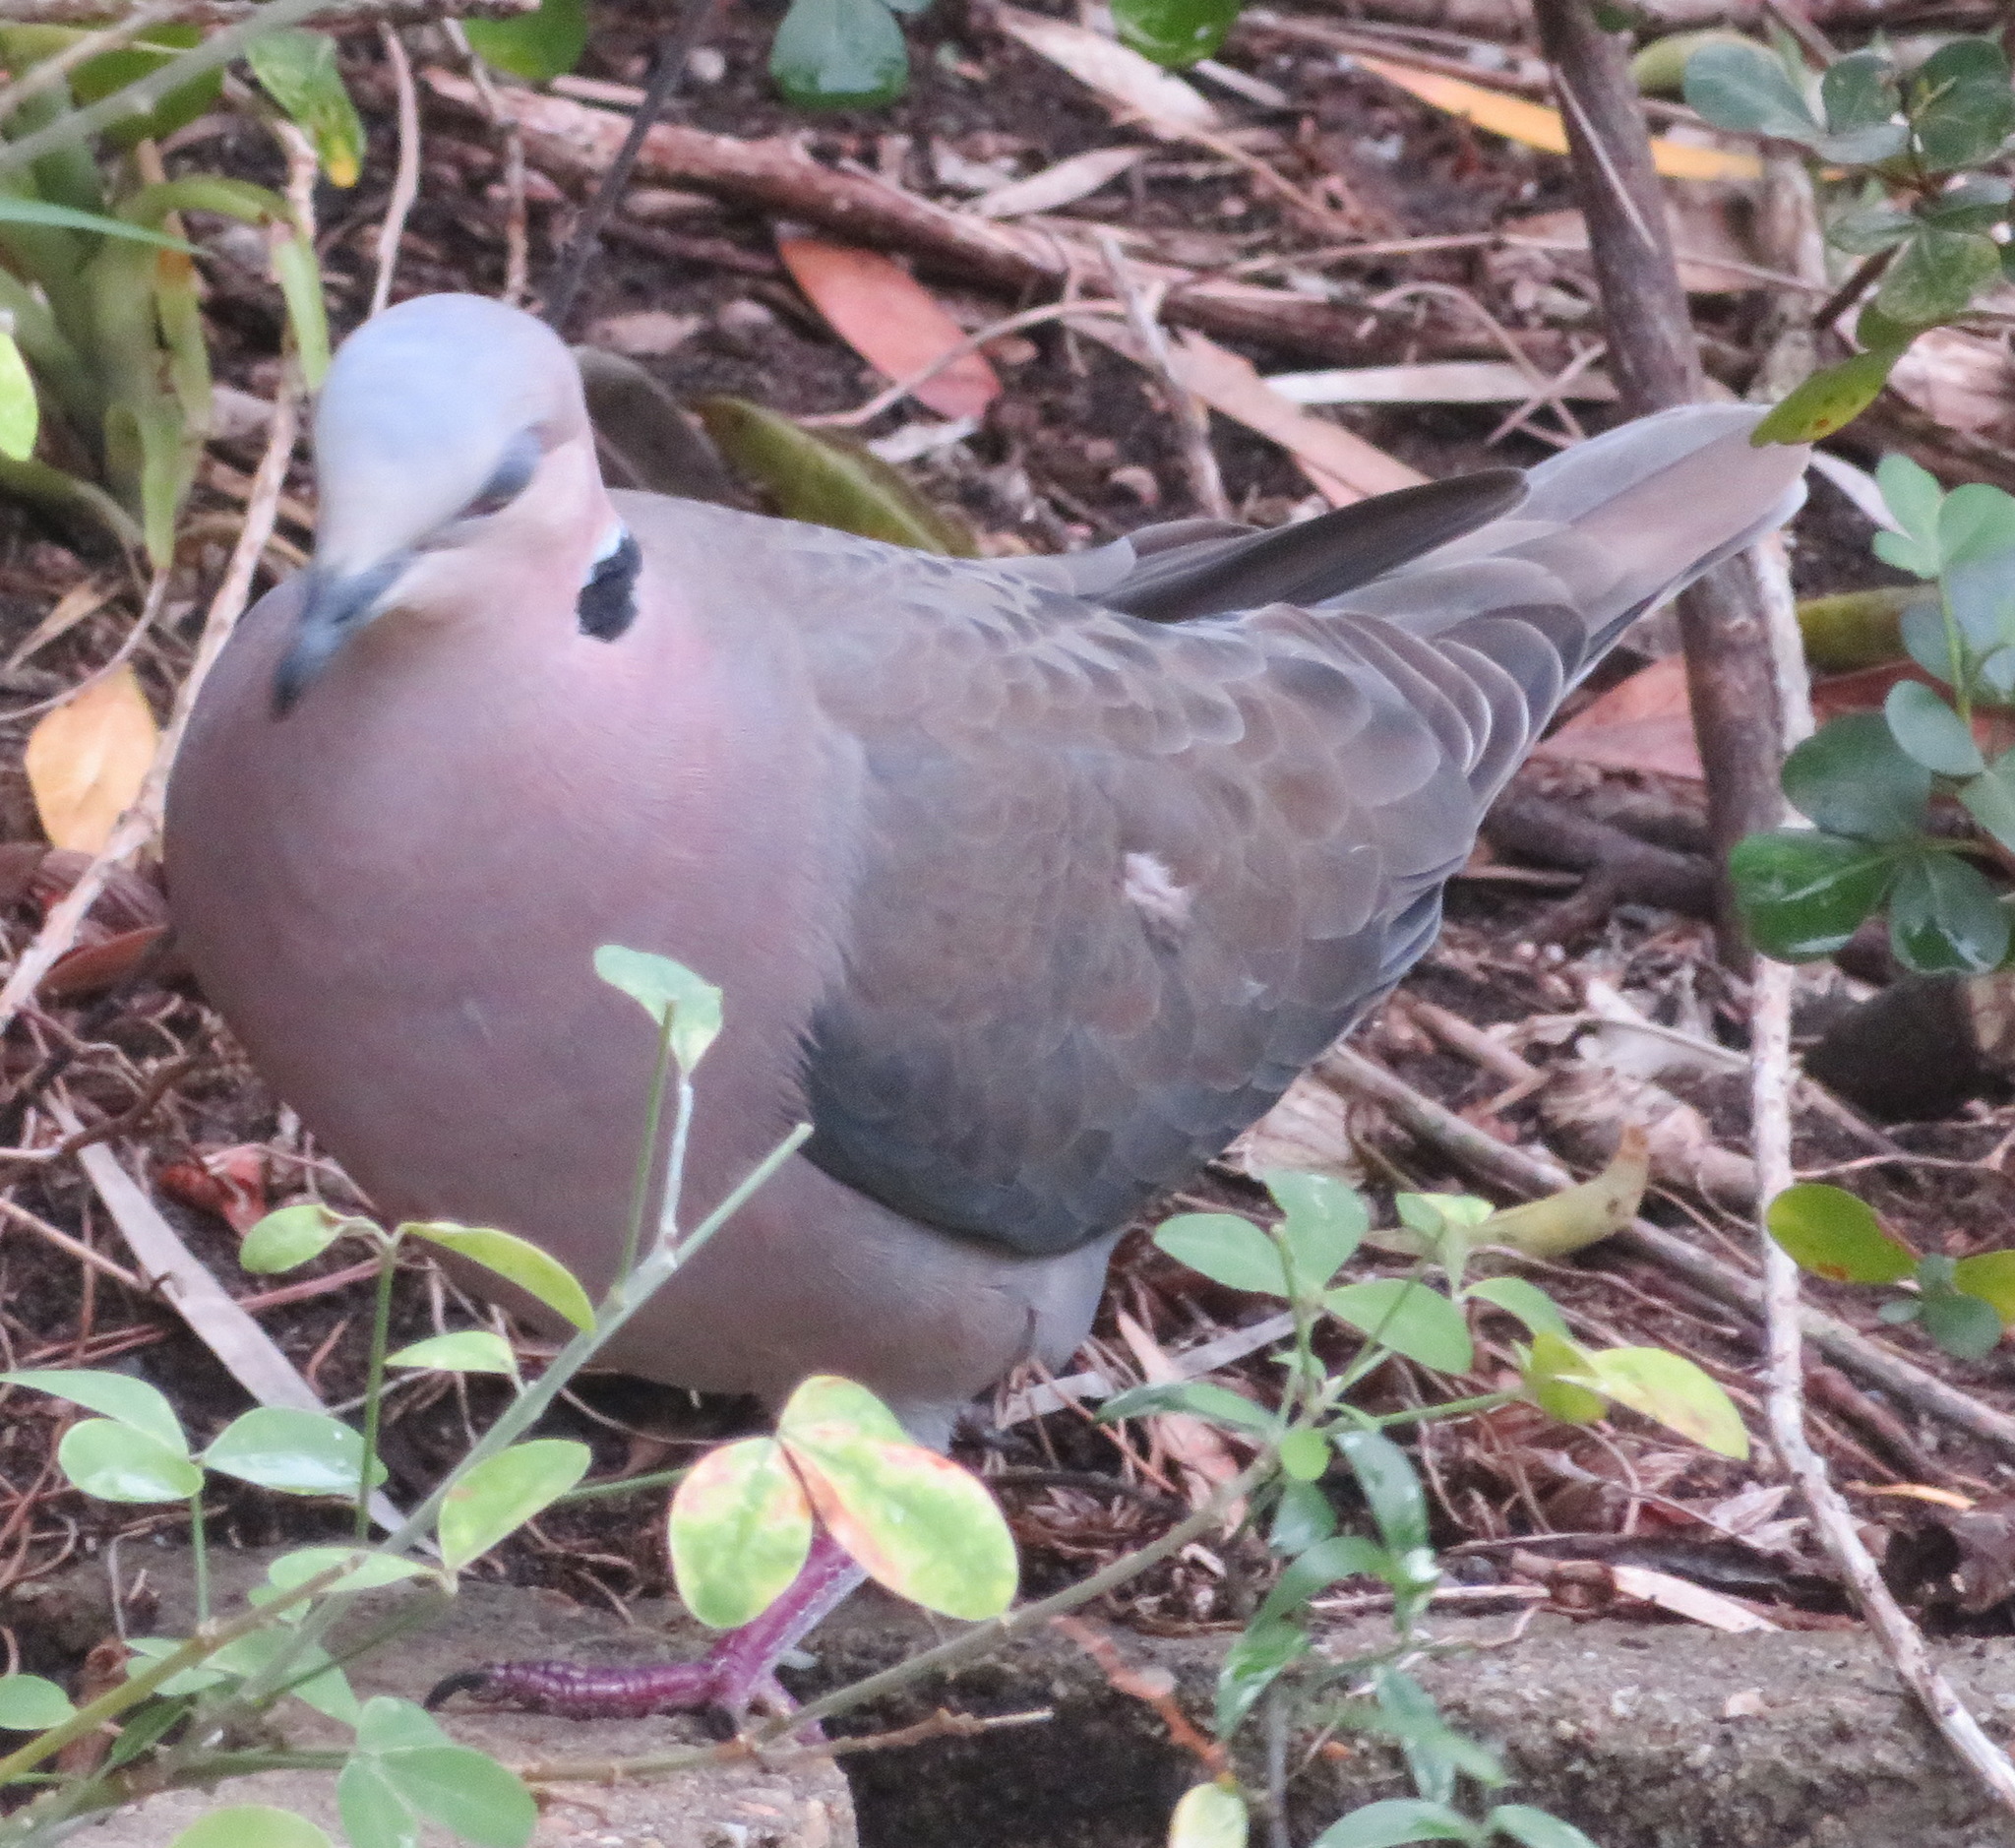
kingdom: Animalia
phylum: Chordata
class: Aves
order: Columbiformes
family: Columbidae
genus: Streptopelia
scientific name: Streptopelia semitorquata
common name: Red-eyed dove
